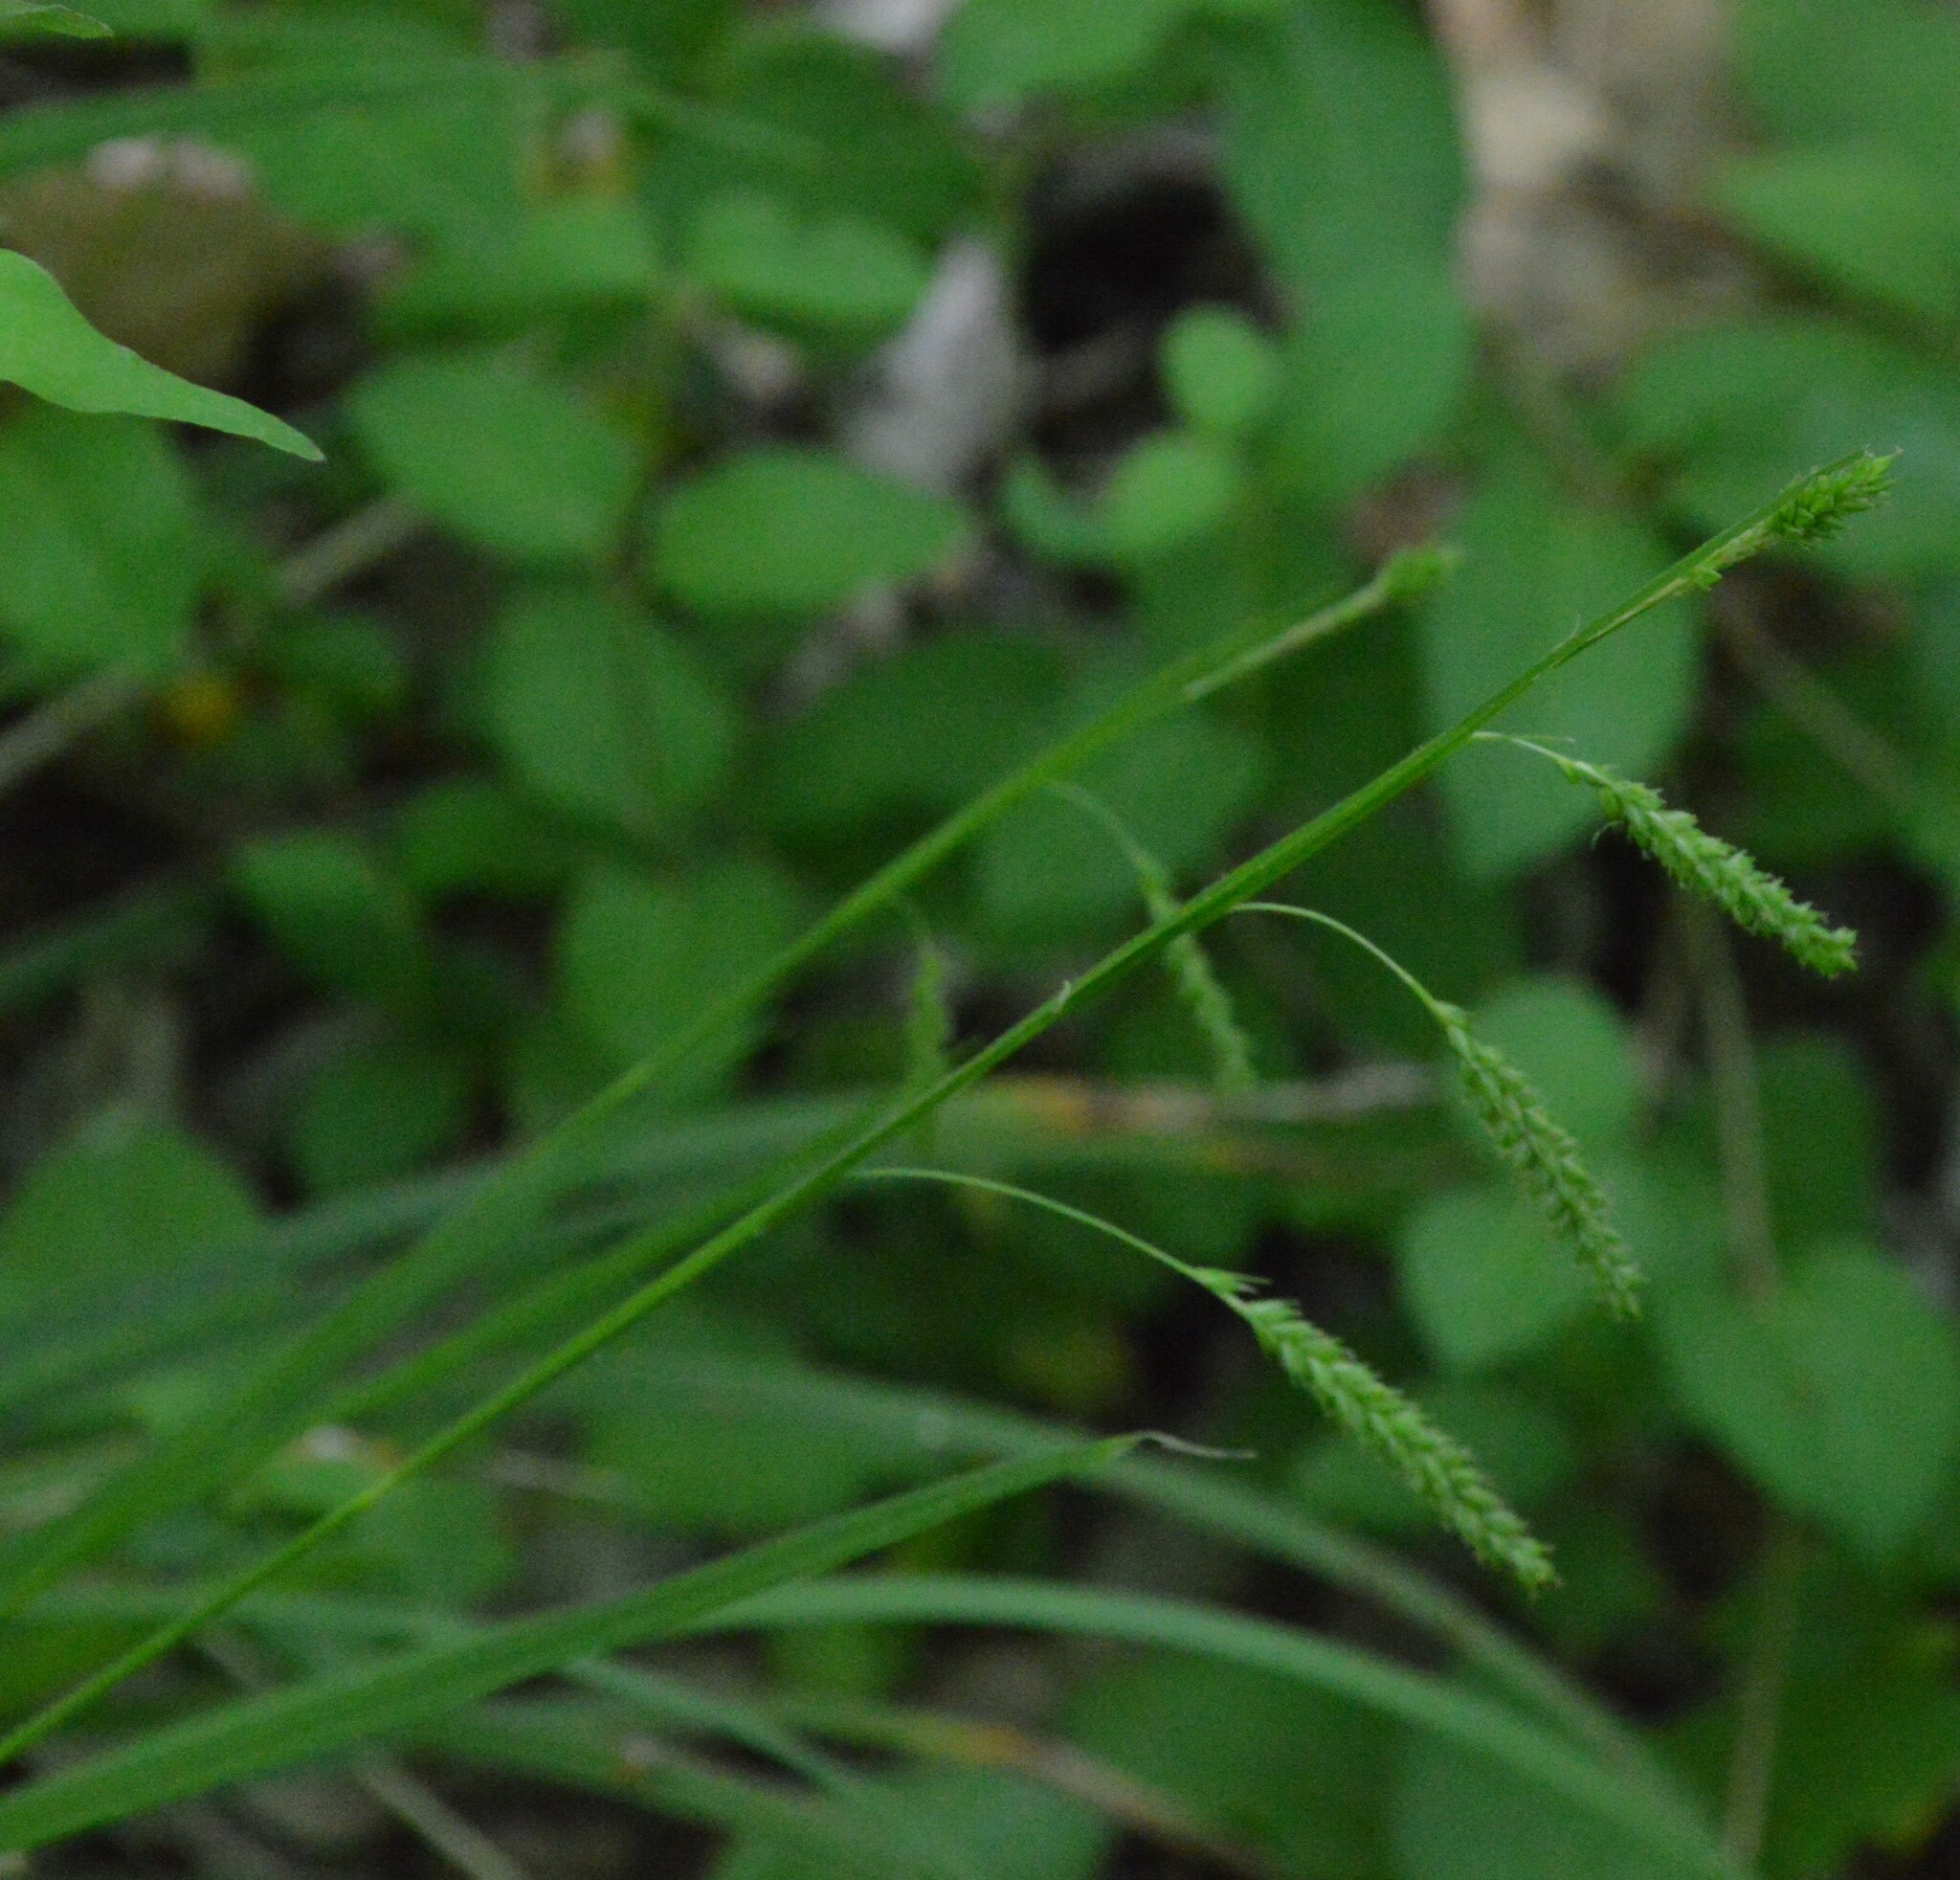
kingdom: Plantae
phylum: Tracheophyta
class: Liliopsida
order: Poales
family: Cyperaceae
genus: Carex
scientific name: Carex oxylepis
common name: Sharpscale sedge
